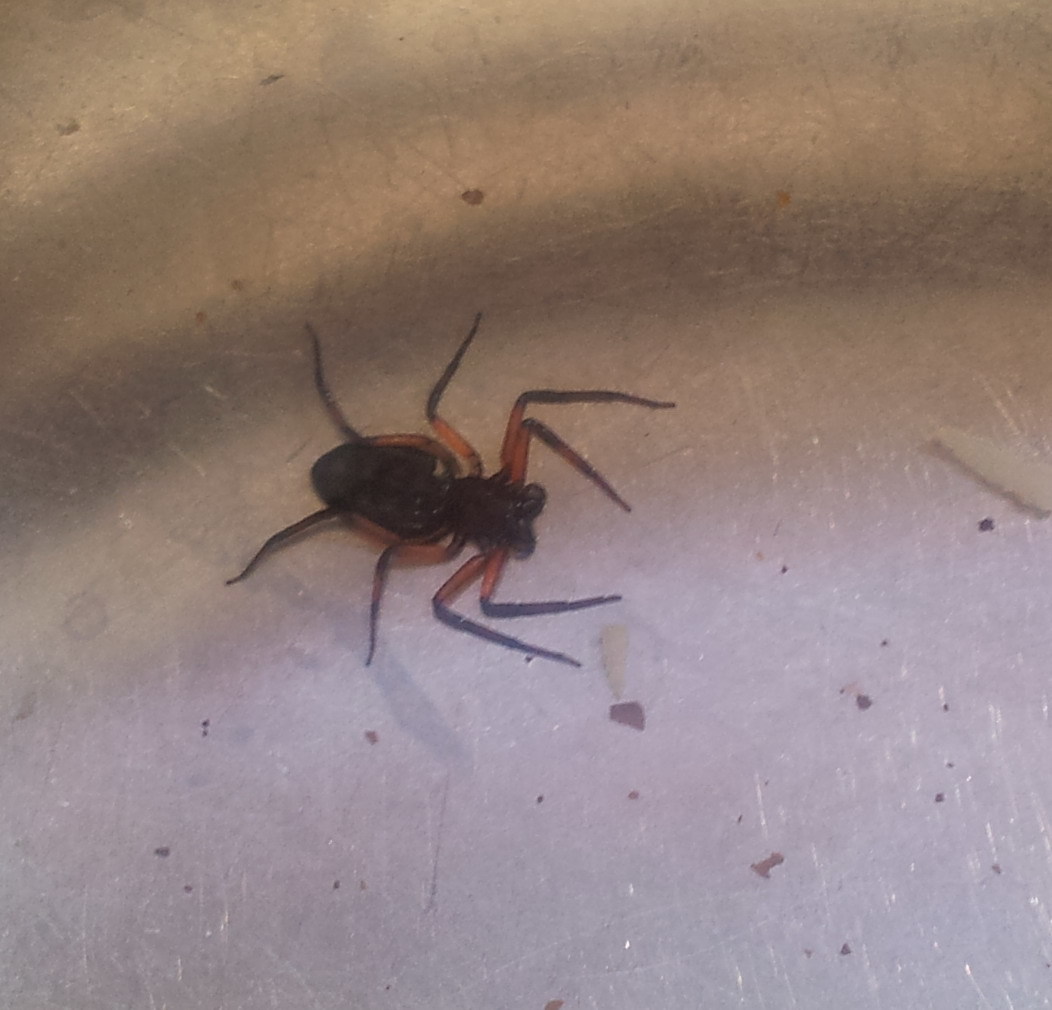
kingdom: Animalia
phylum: Arthropoda
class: Arachnida
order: Araneae
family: Trochanteriidae
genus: Platyoides
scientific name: Platyoides walteri
